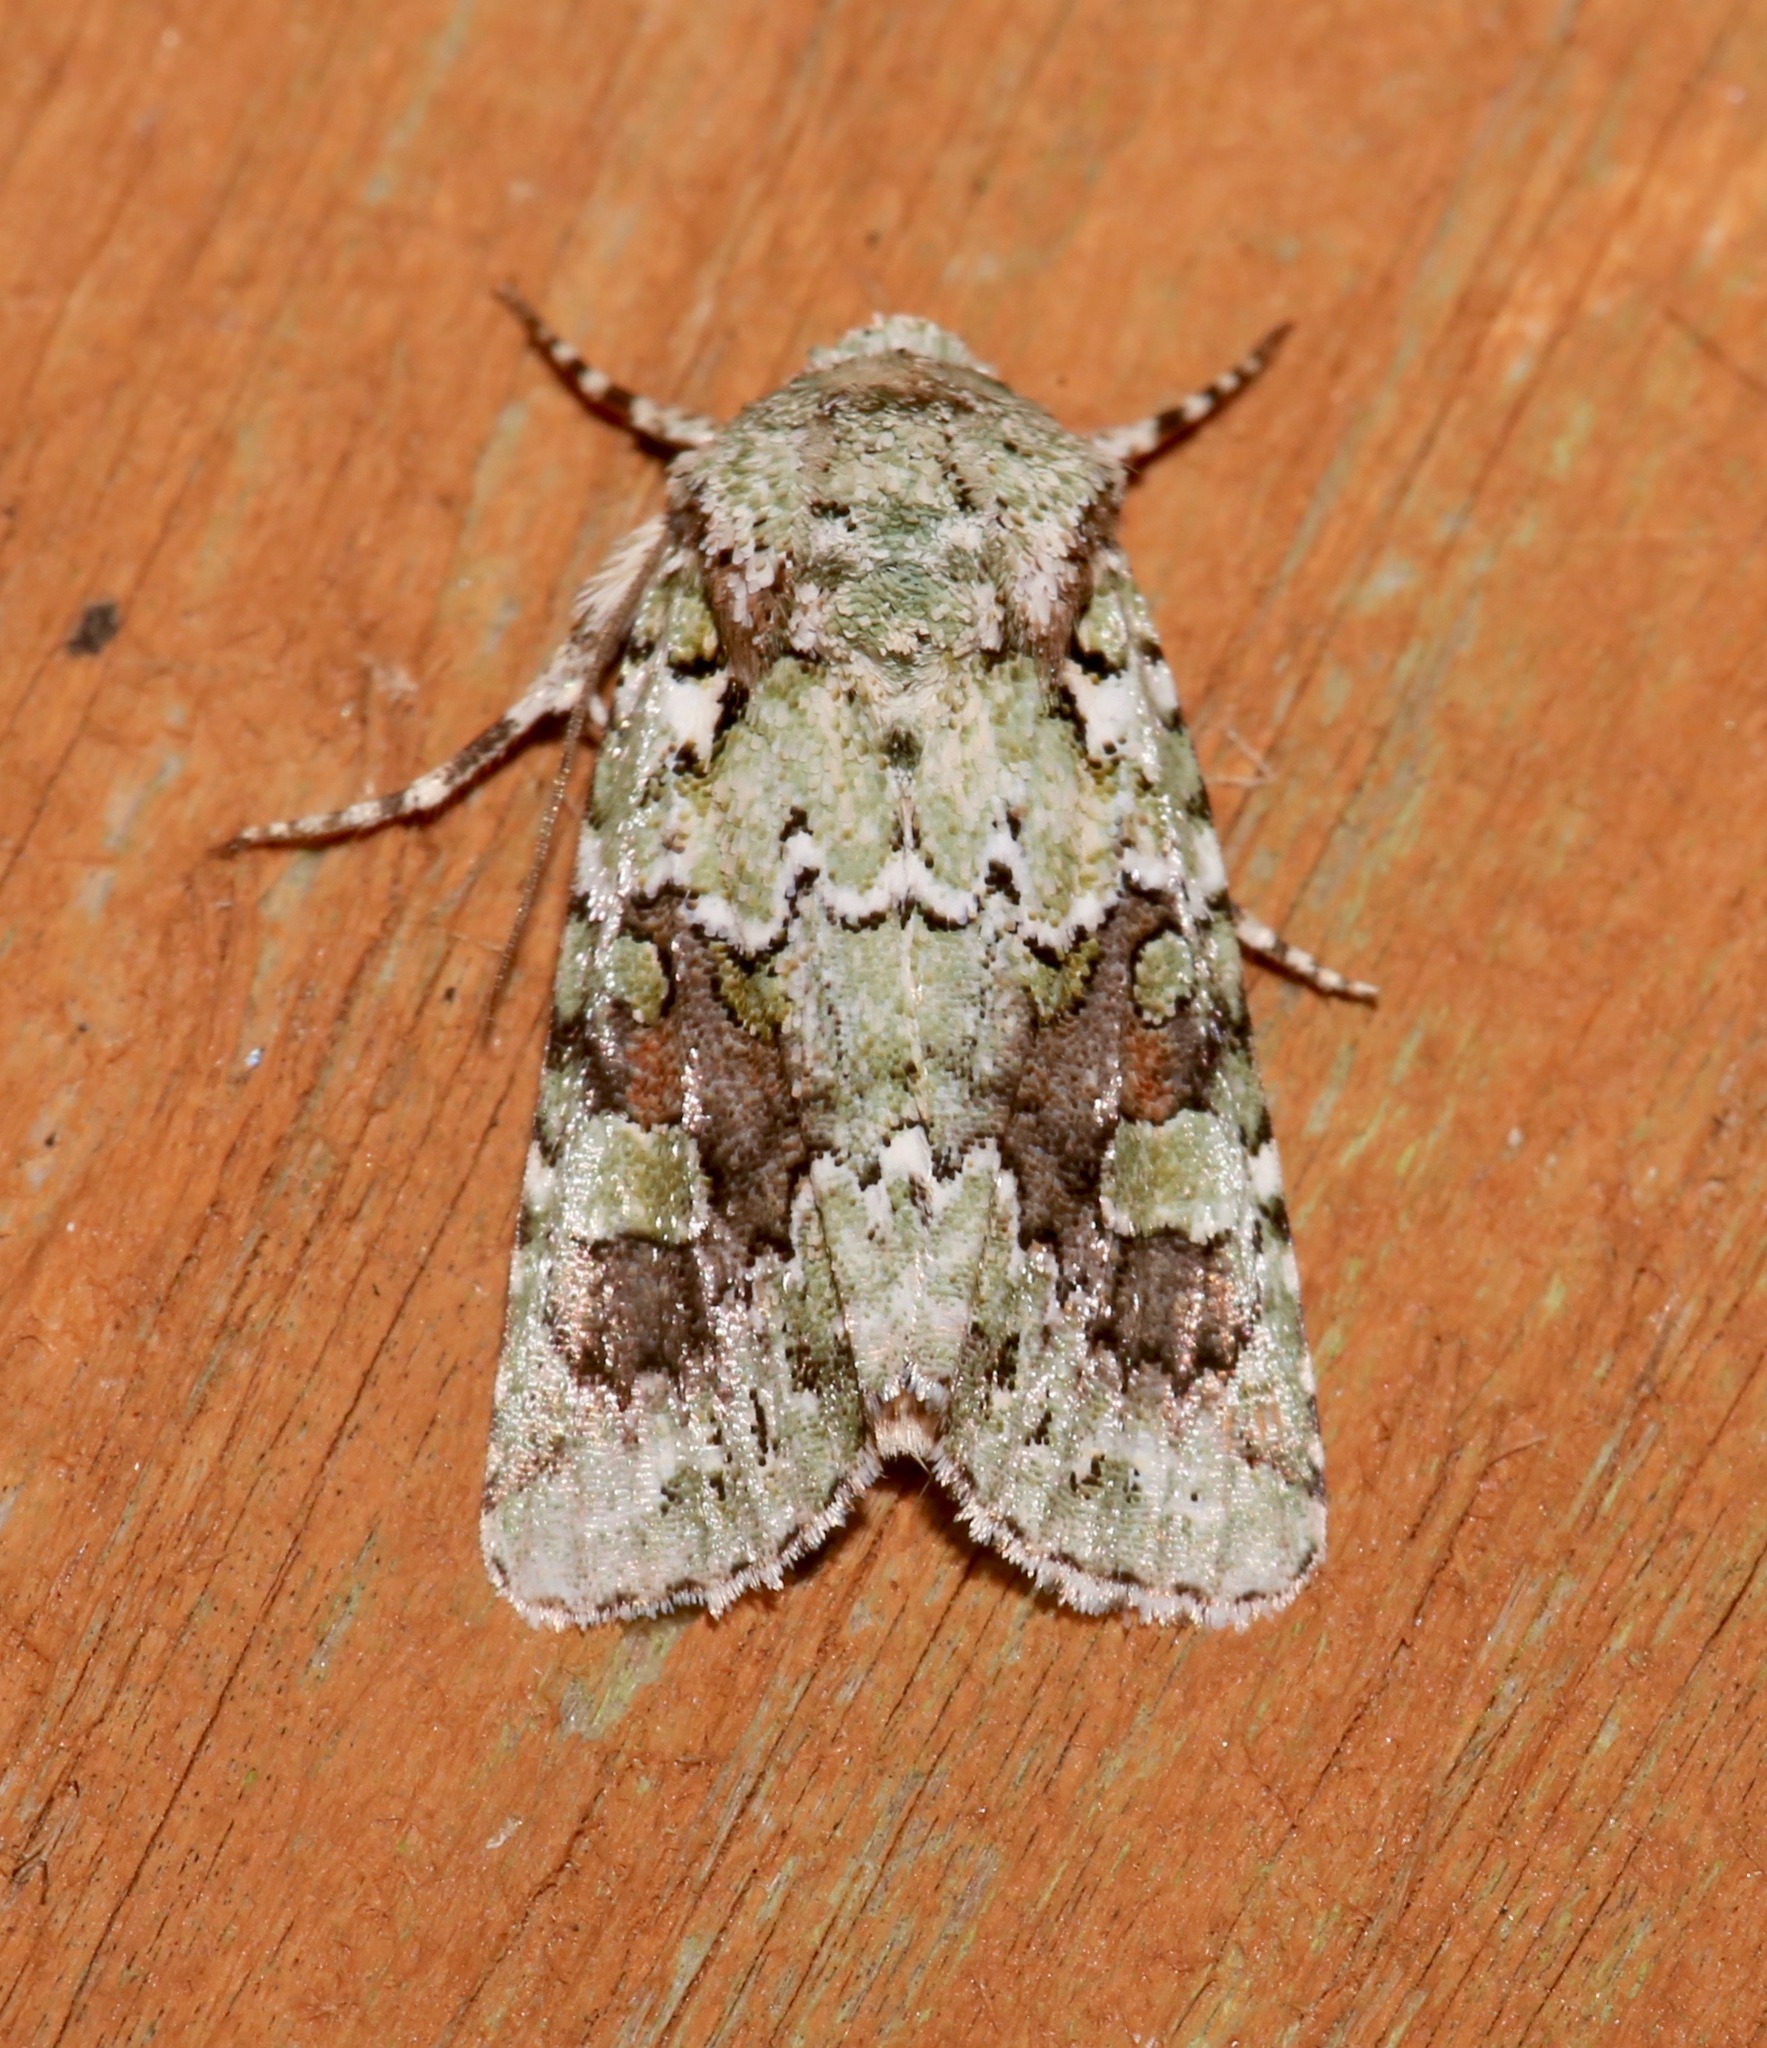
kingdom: Animalia
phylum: Arthropoda
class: Insecta
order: Lepidoptera
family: Noctuidae
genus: Lacinipolia
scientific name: Lacinipolia laudabilis
